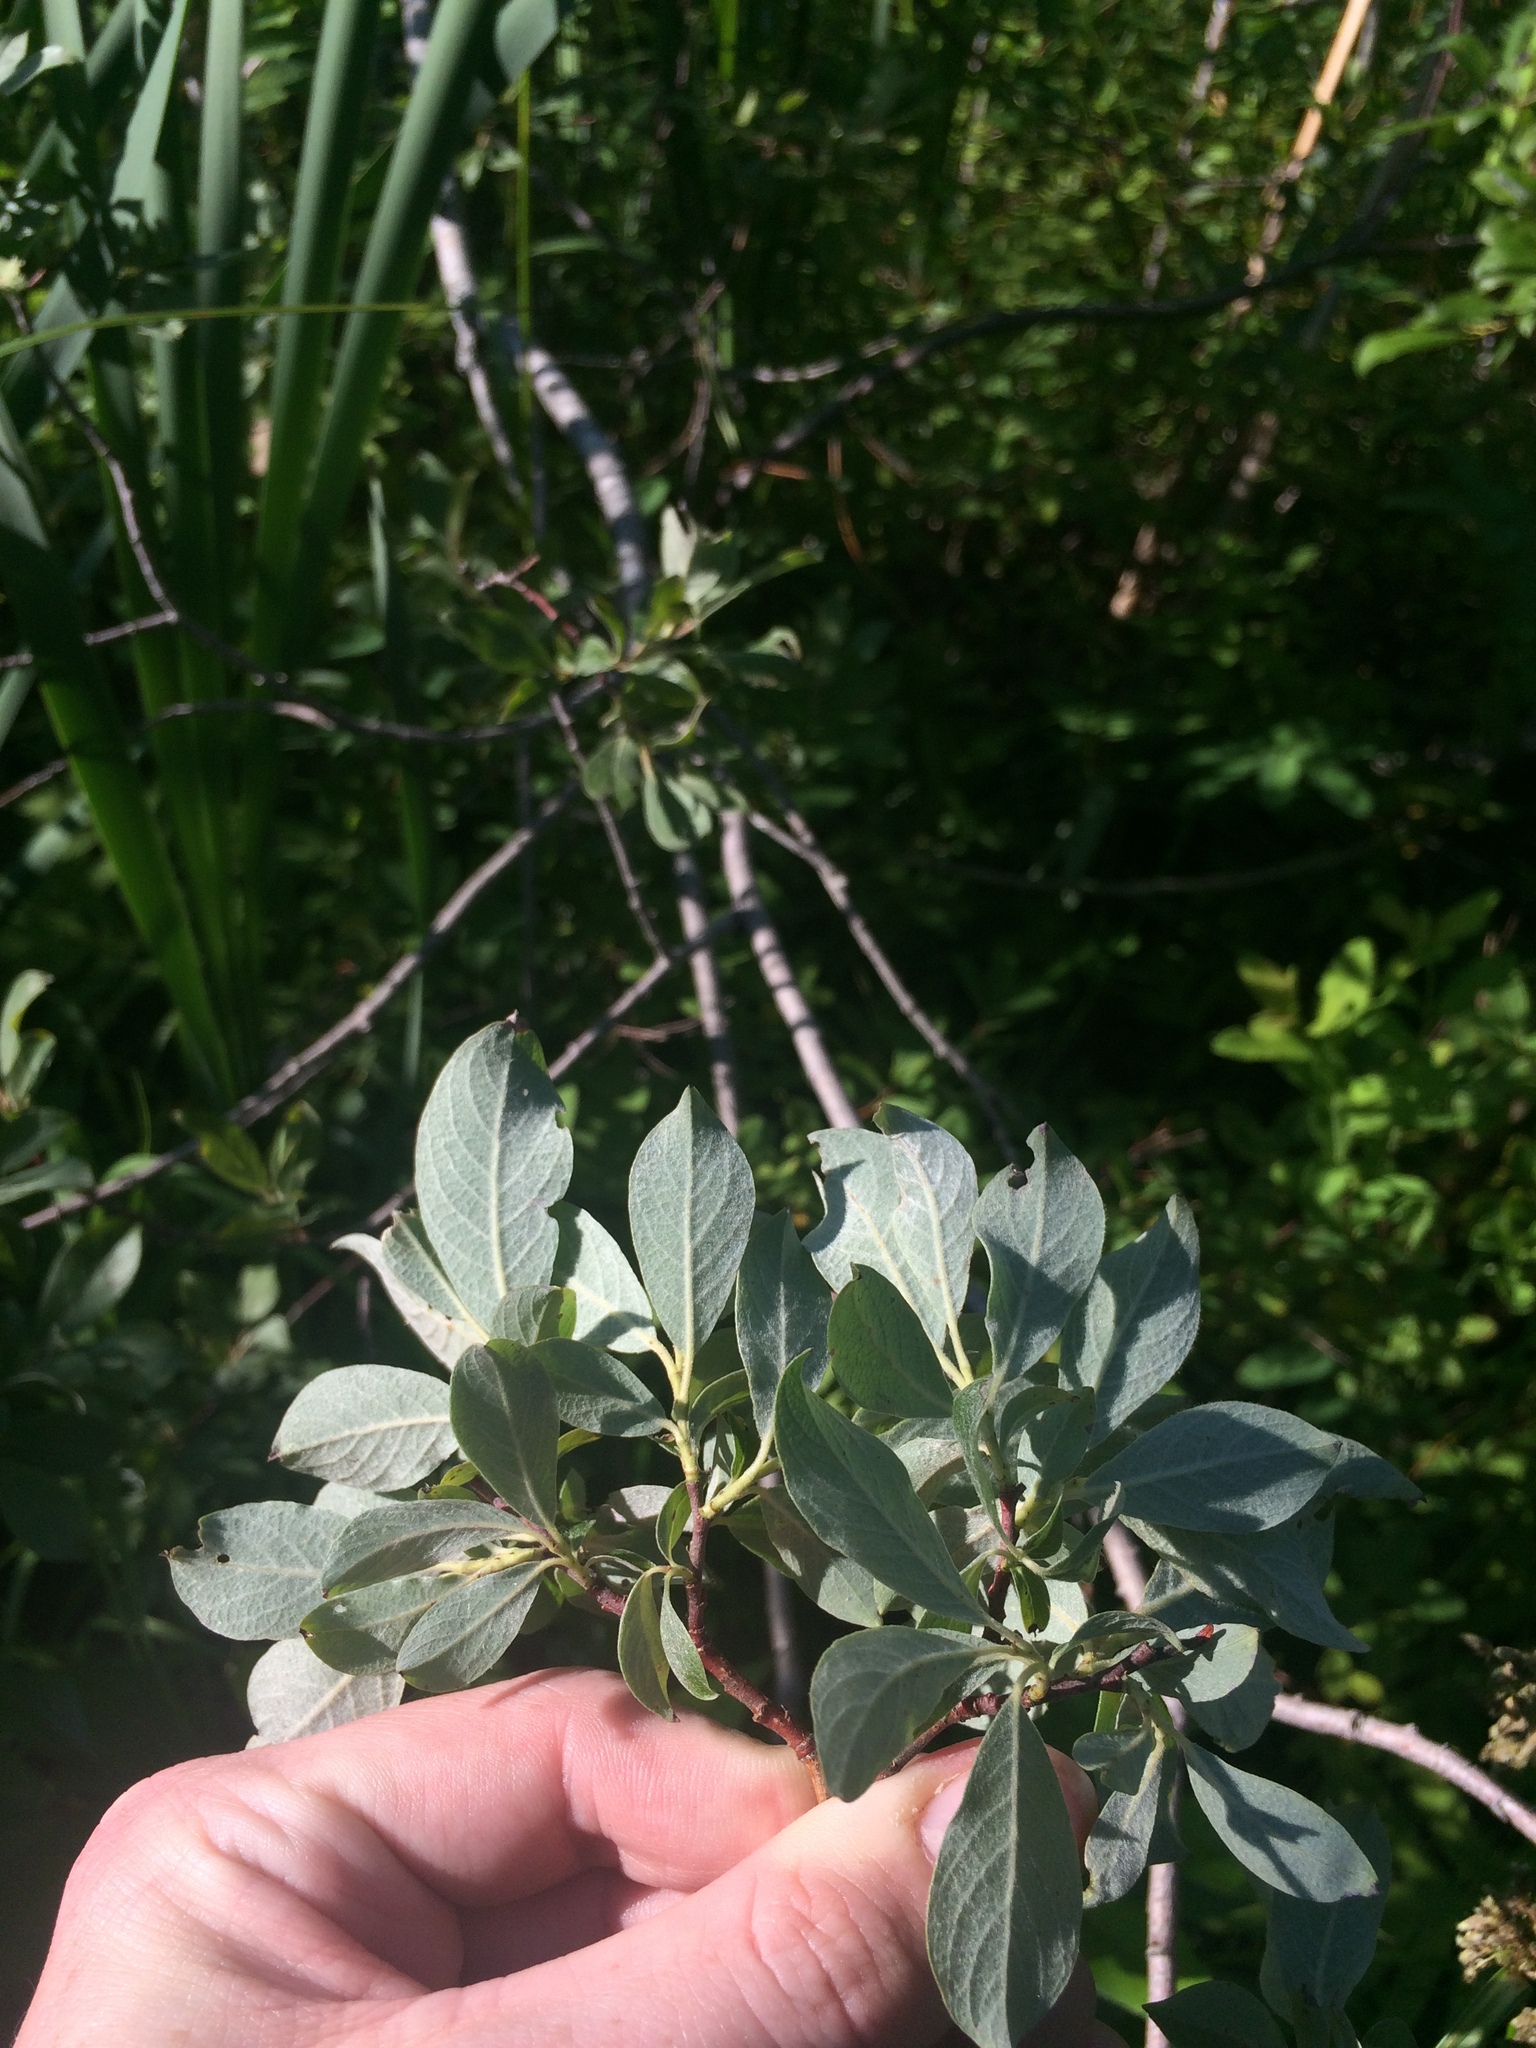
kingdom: Plantae
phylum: Tracheophyta
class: Magnoliopsida
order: Malpighiales
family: Salicaceae
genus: Salix
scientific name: Salix bebbiana
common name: Bebb's willow
